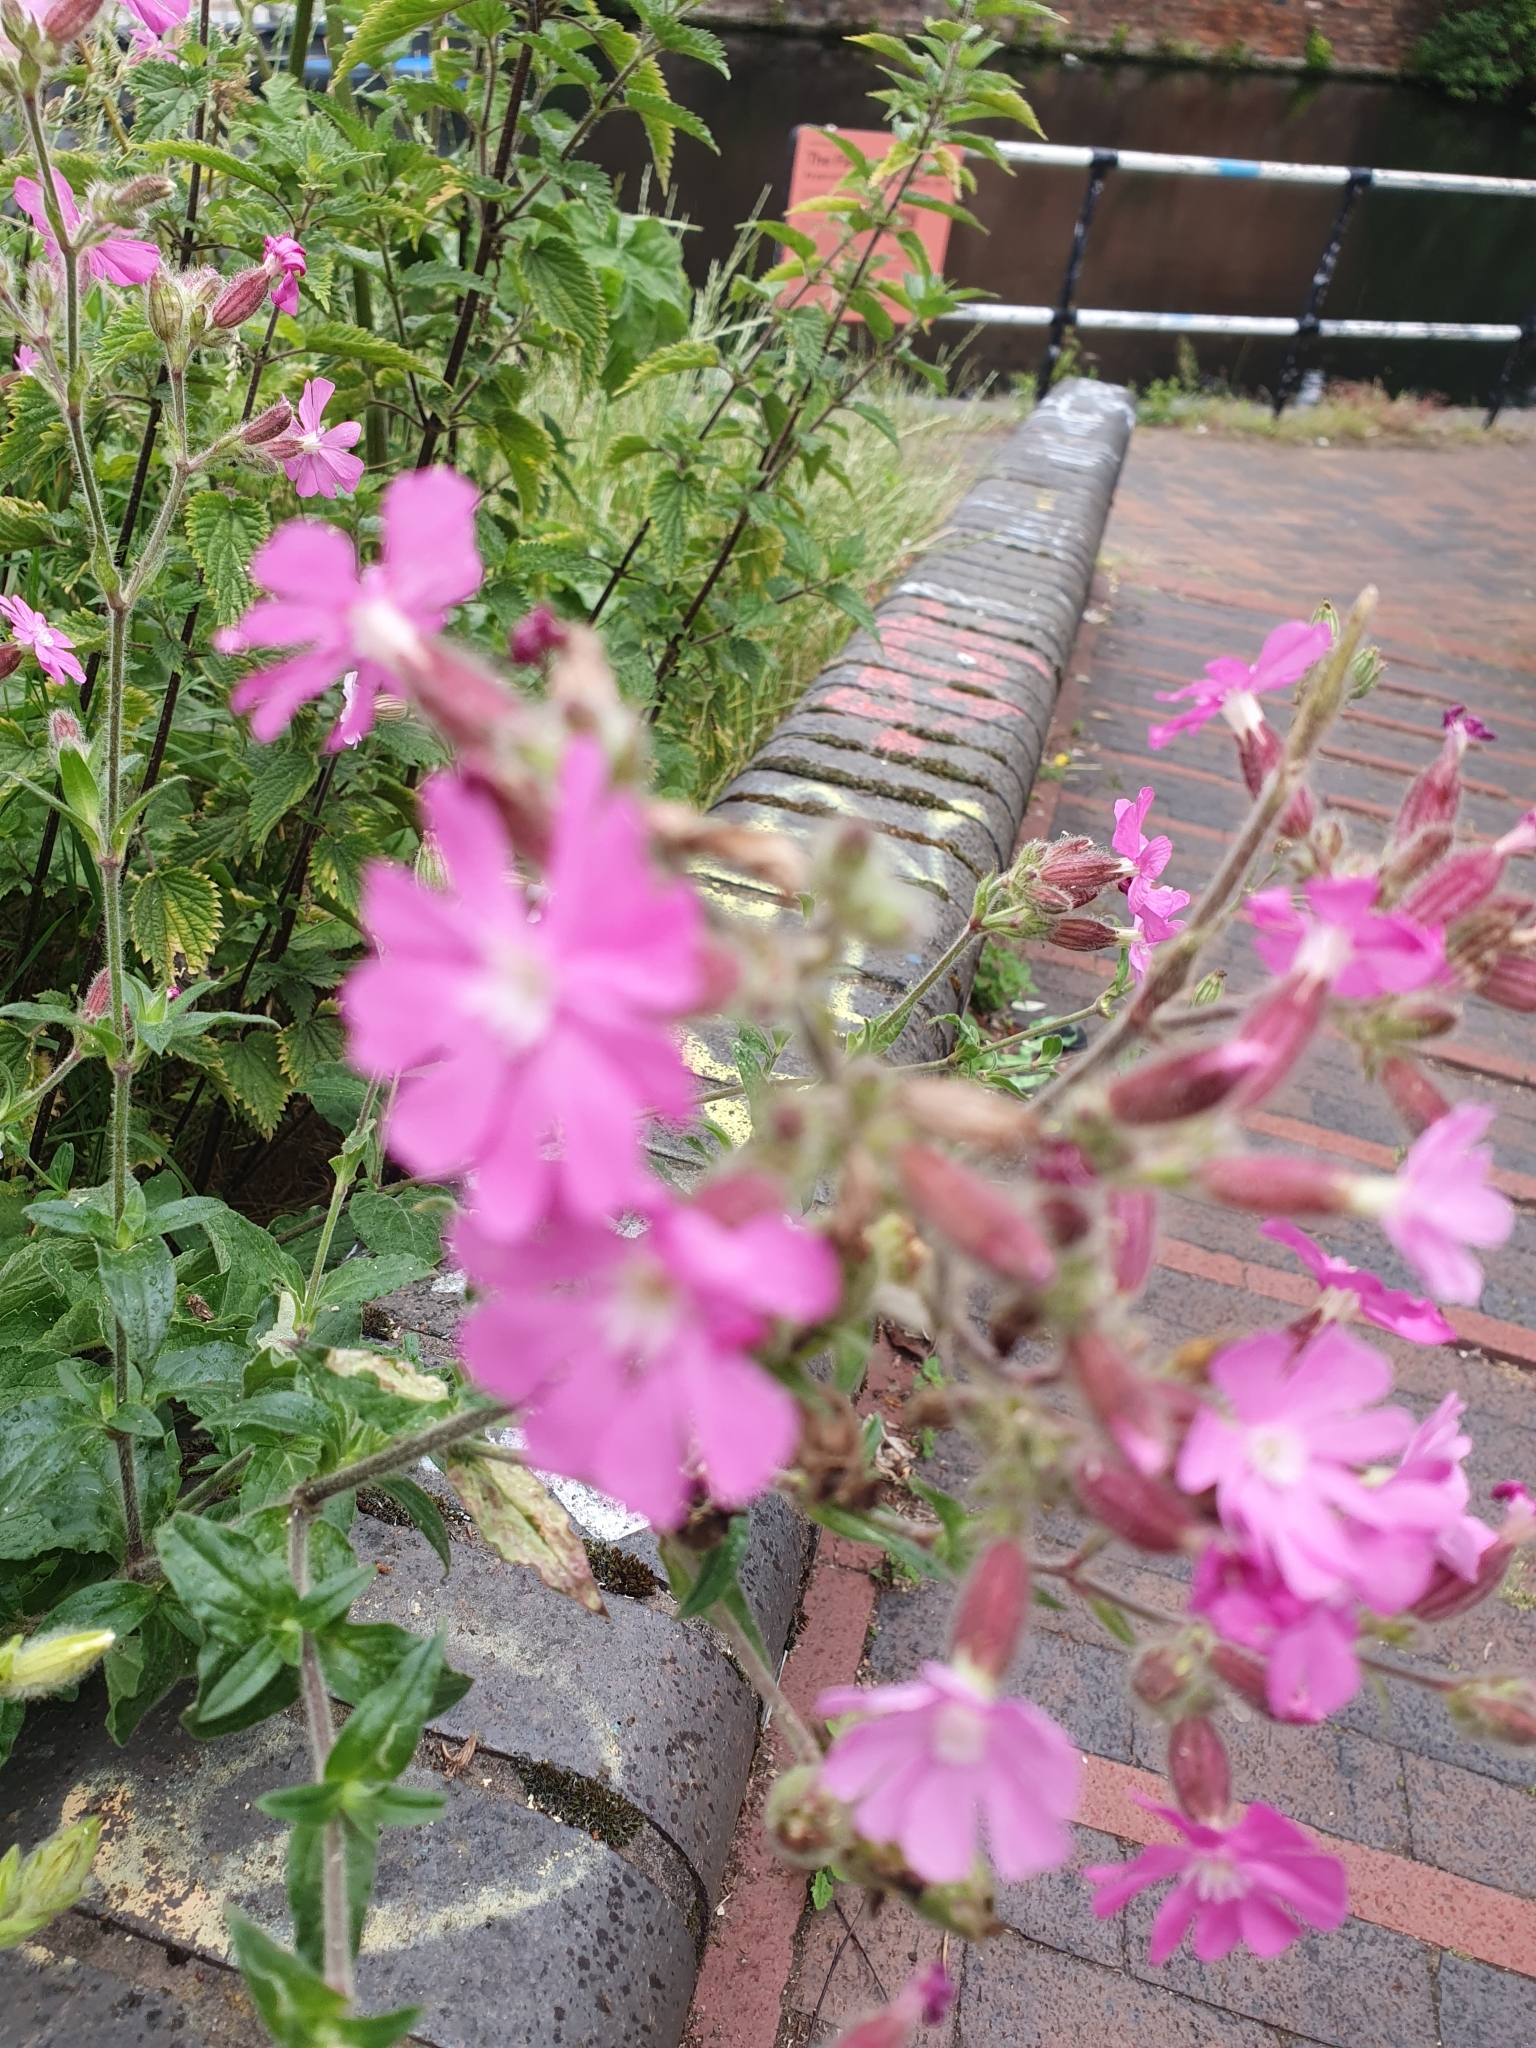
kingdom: Plantae
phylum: Tracheophyta
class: Magnoliopsida
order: Caryophyllales
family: Caryophyllaceae
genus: Silene
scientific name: Silene dioica
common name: Red campion
